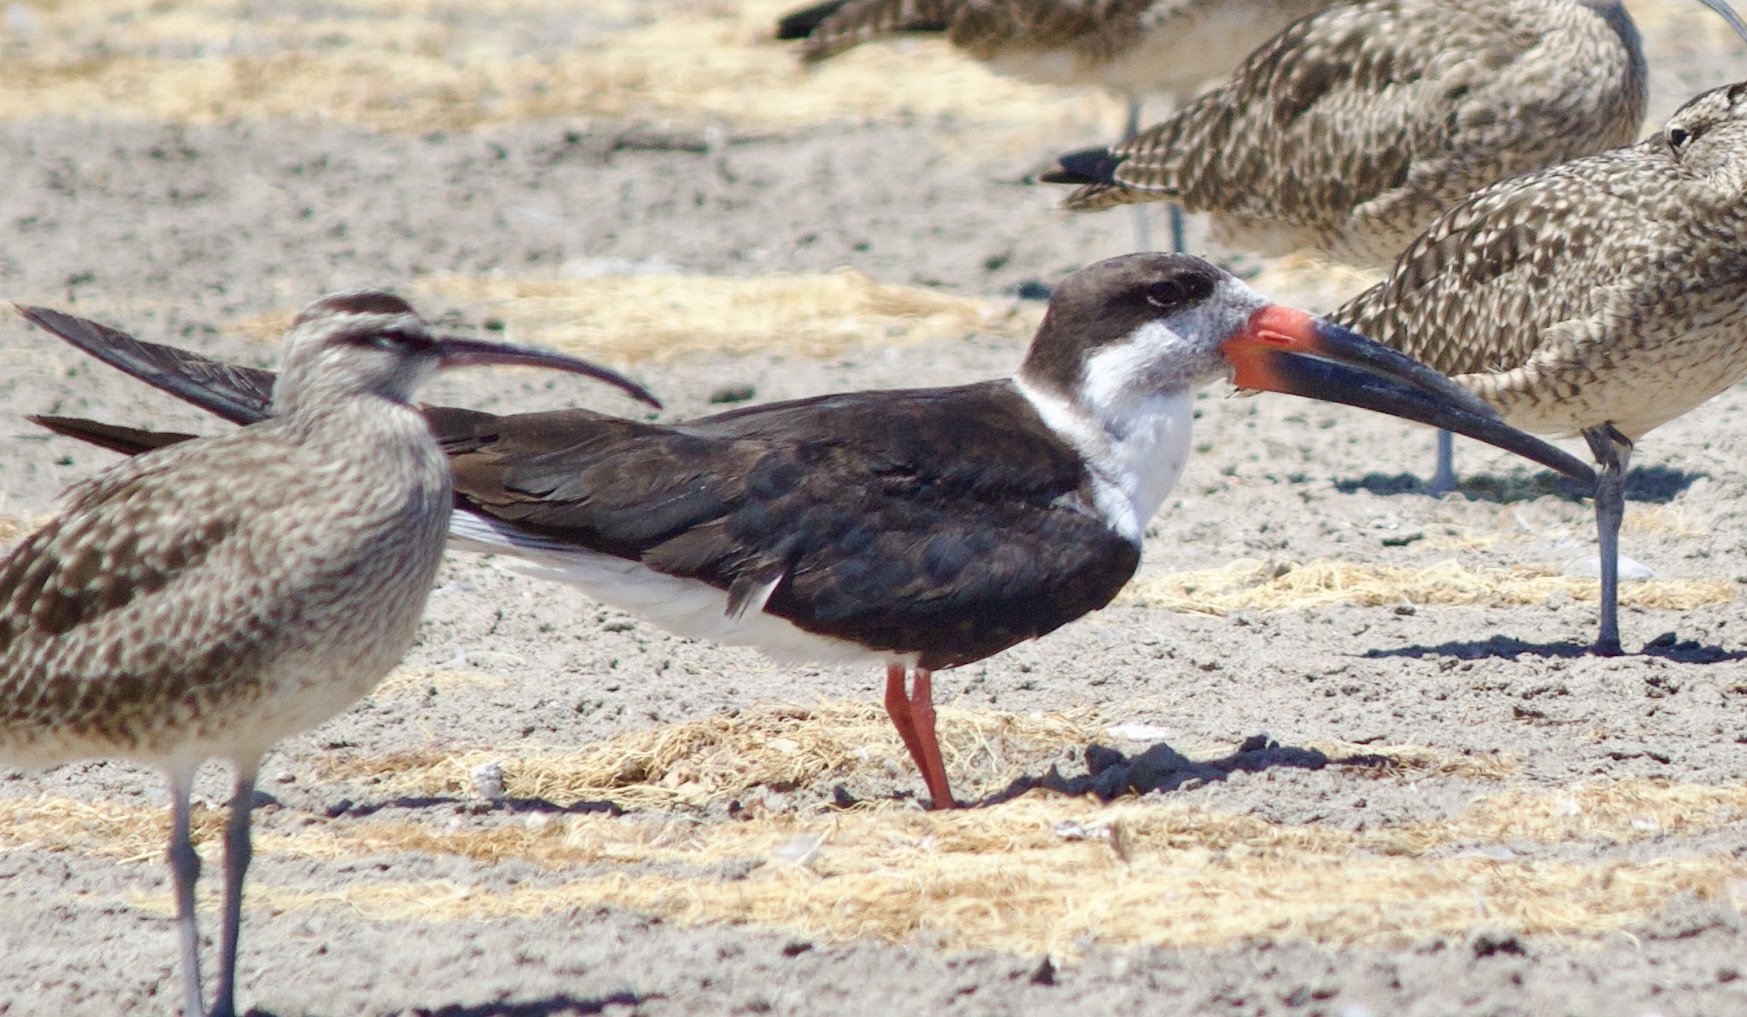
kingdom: Animalia
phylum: Chordata
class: Aves
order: Charadriiformes
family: Laridae
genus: Rynchops
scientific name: Rynchops niger
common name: Black skimmer
